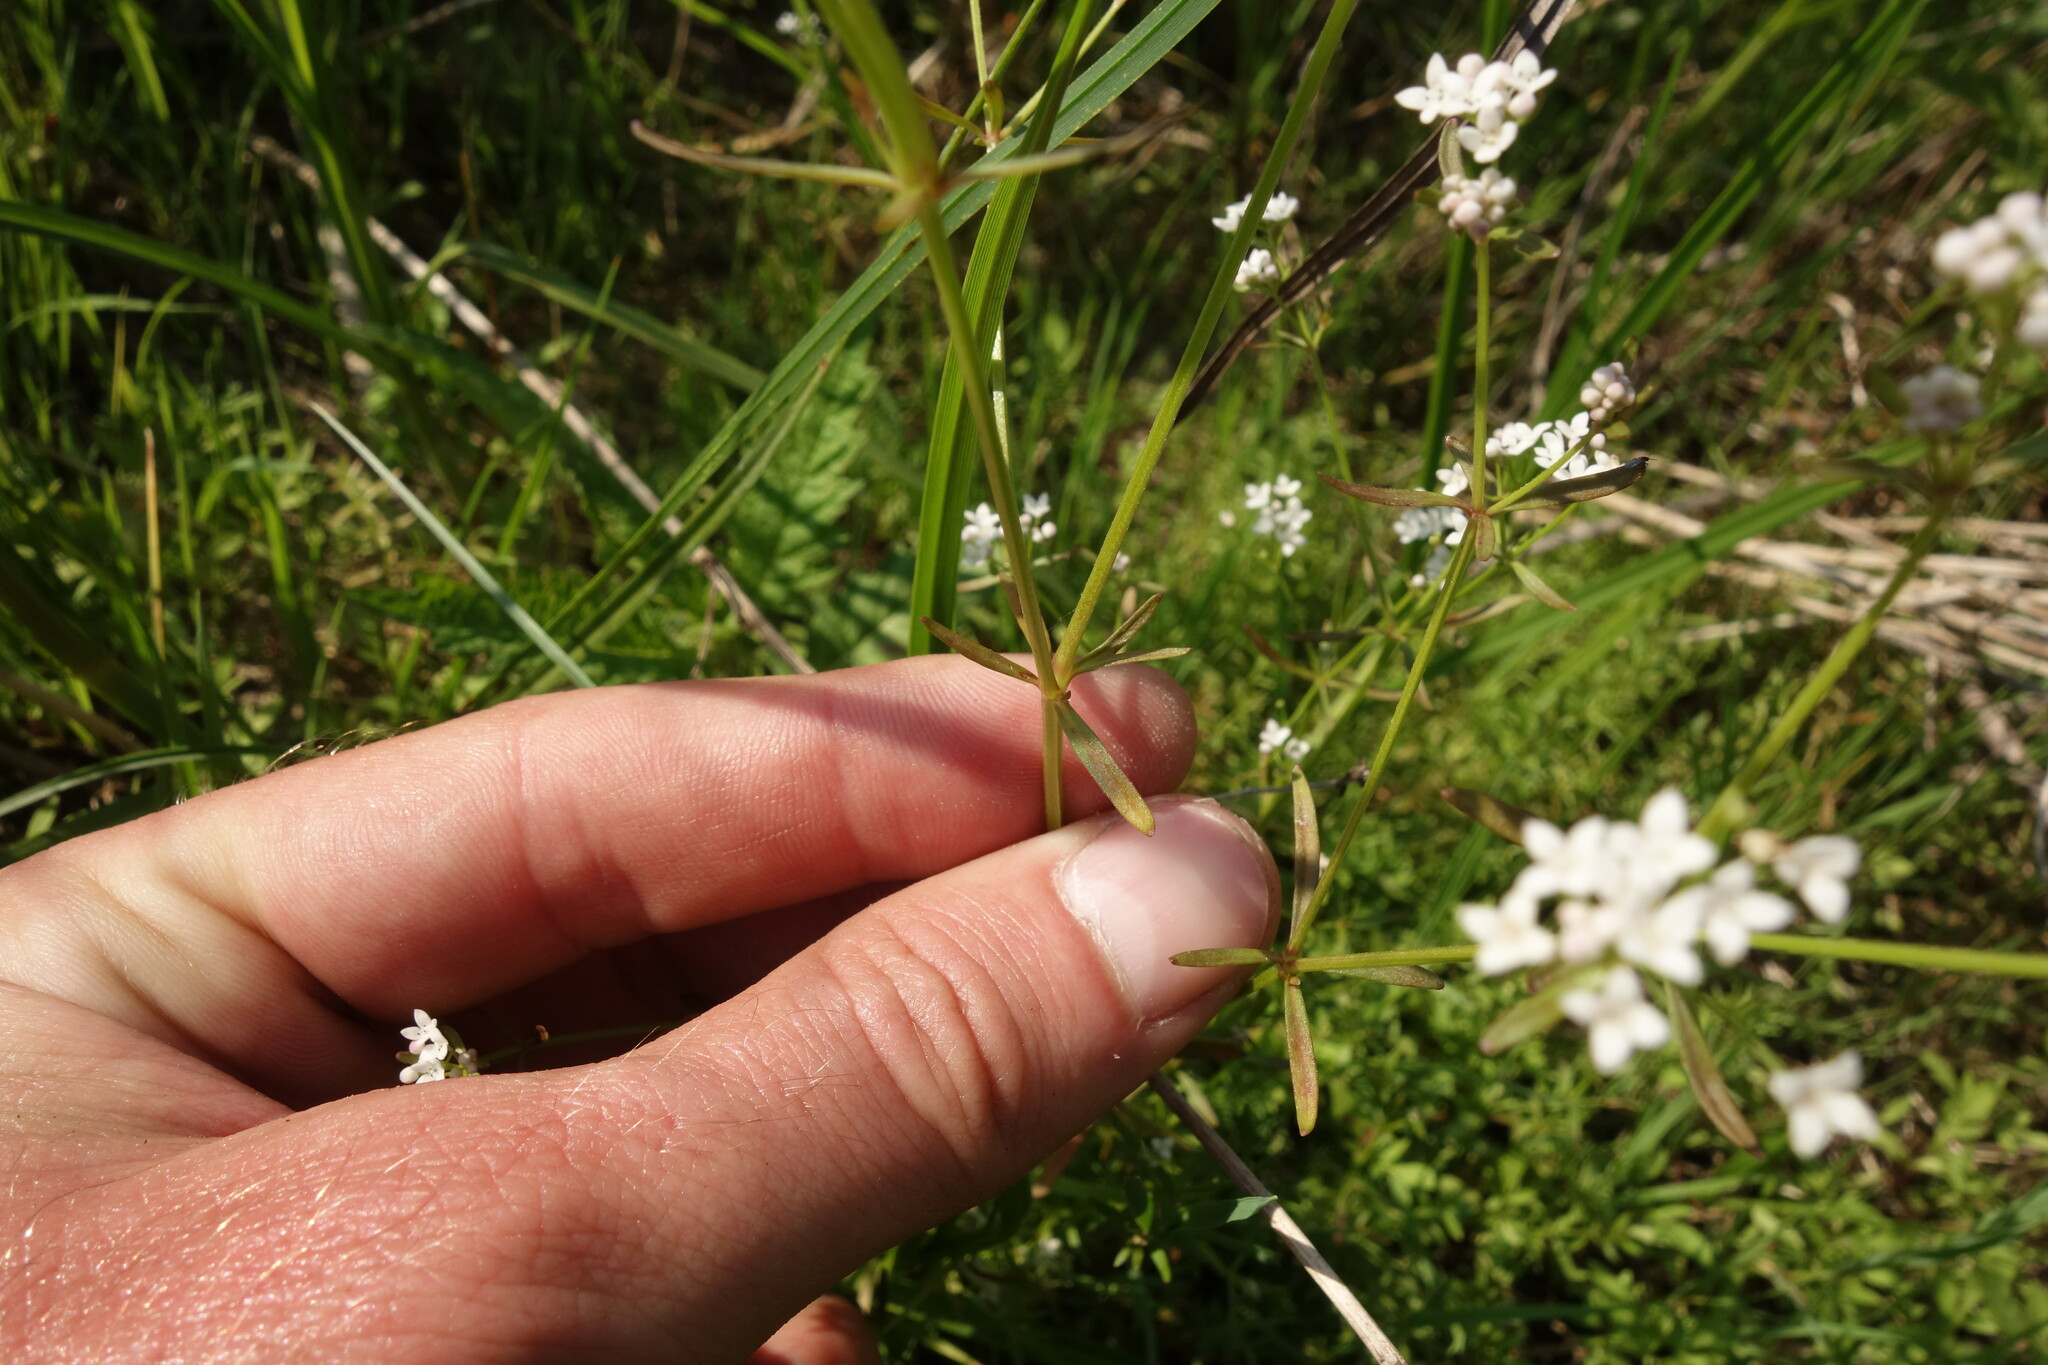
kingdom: Plantae
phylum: Tracheophyta
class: Magnoliopsida
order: Gentianales
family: Rubiaceae
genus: Galium
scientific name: Galium palustre
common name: Common marsh-bedstraw
